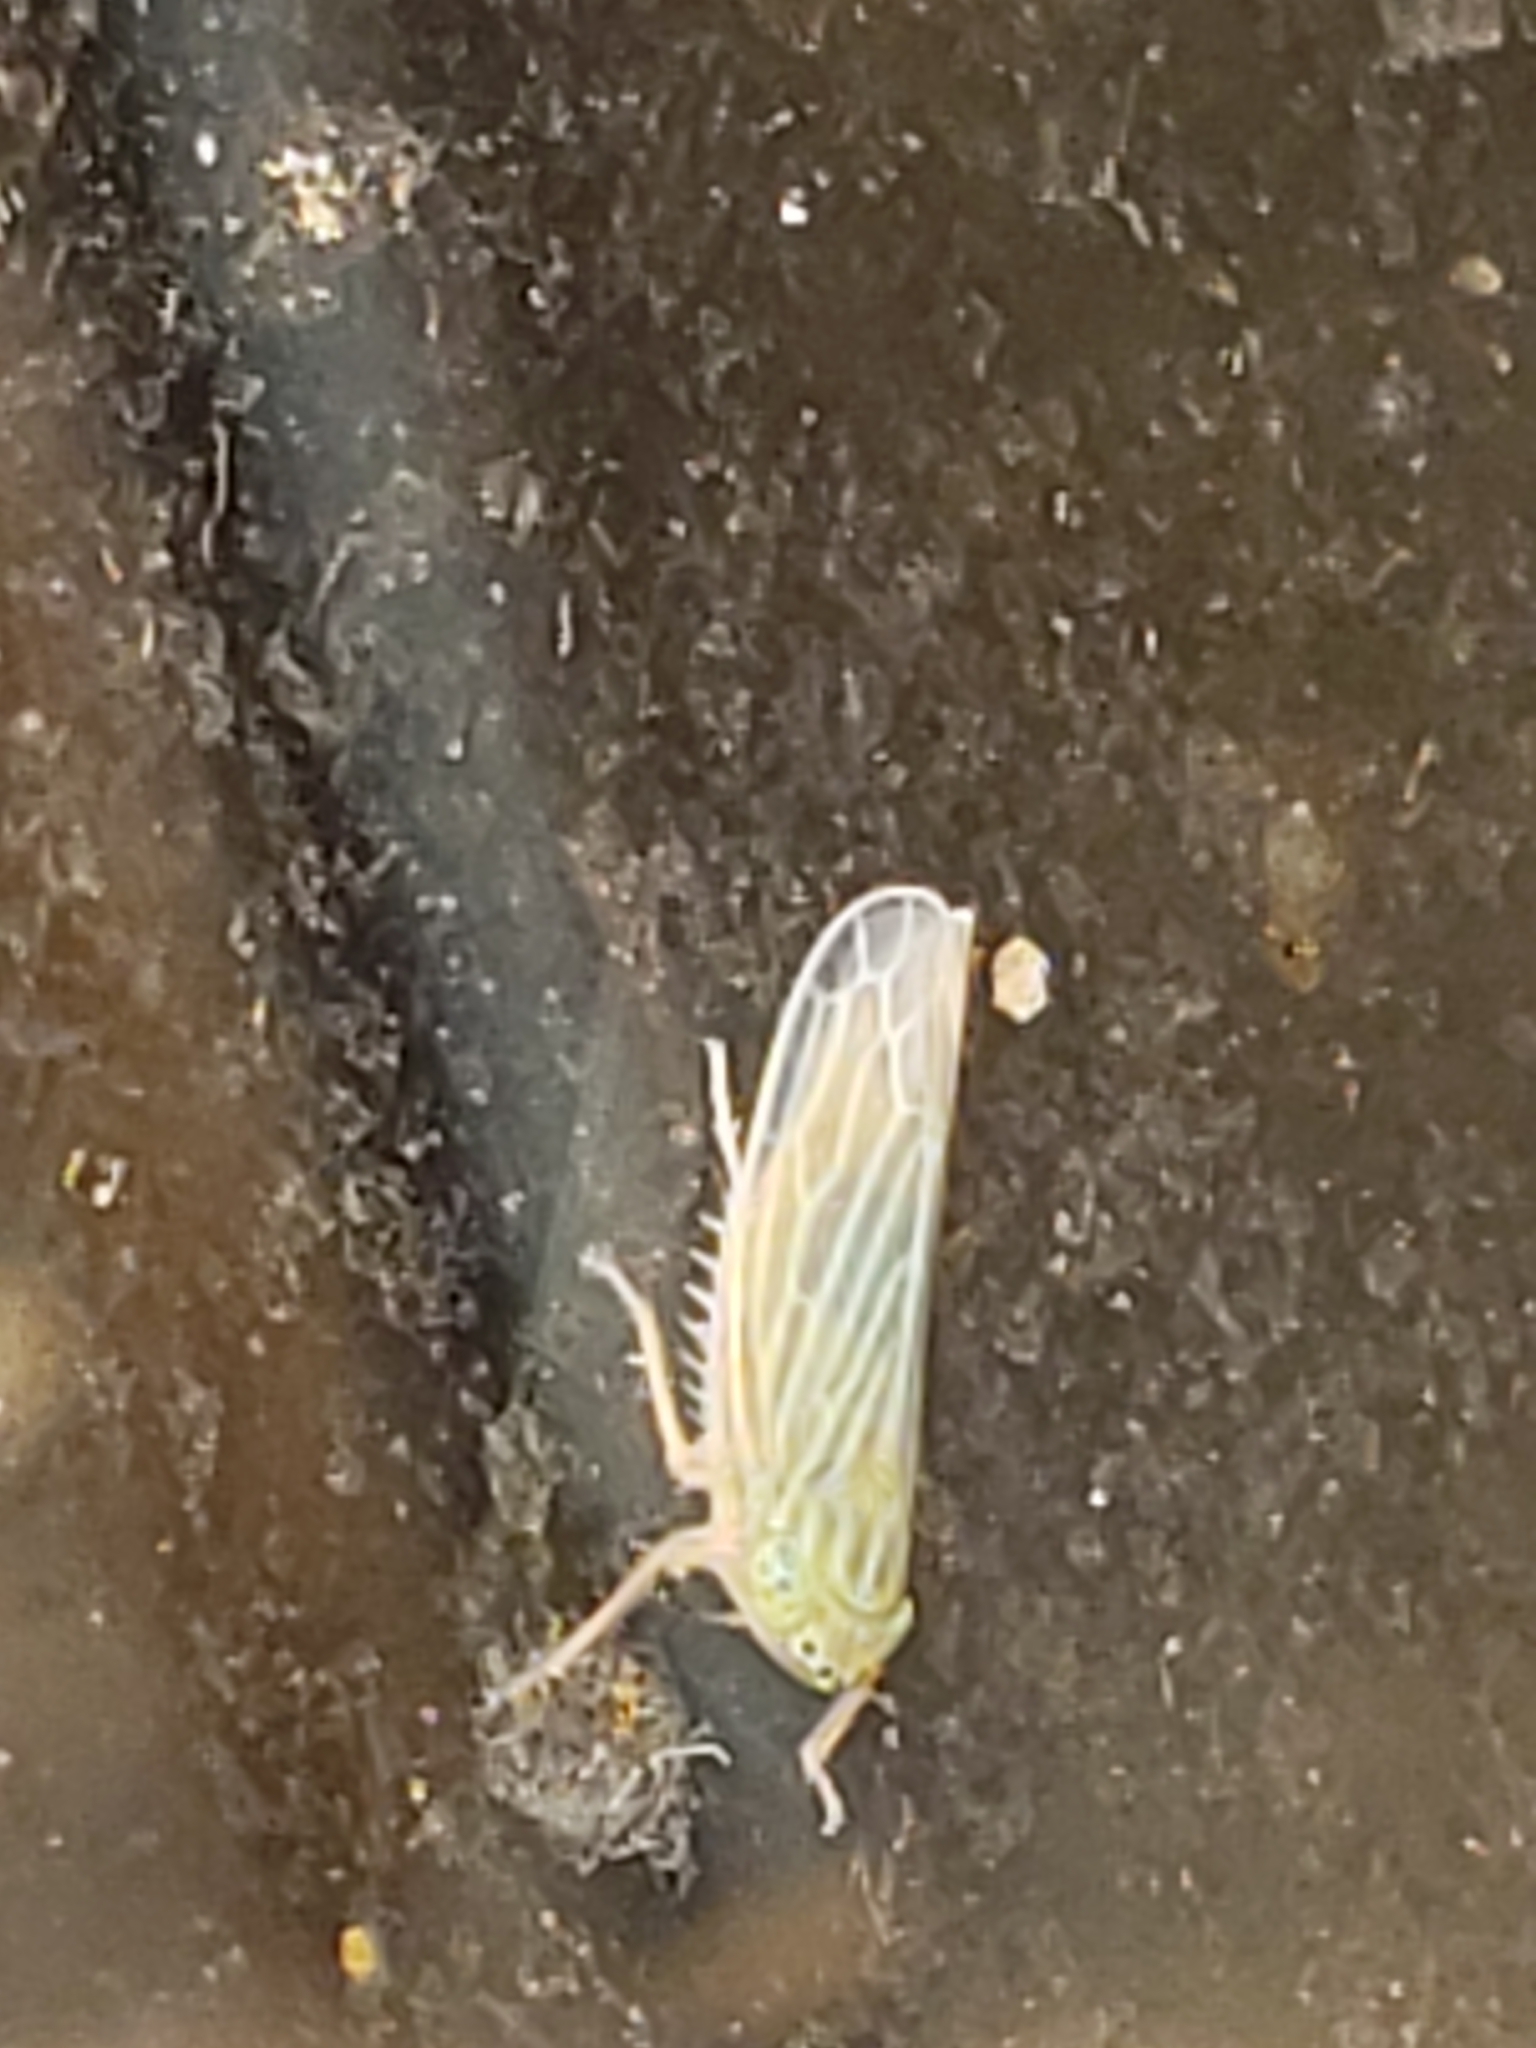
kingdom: Animalia
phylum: Arthropoda
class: Insecta
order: Hemiptera
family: Cicadellidae
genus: Graminella
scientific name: Graminella fitchii
